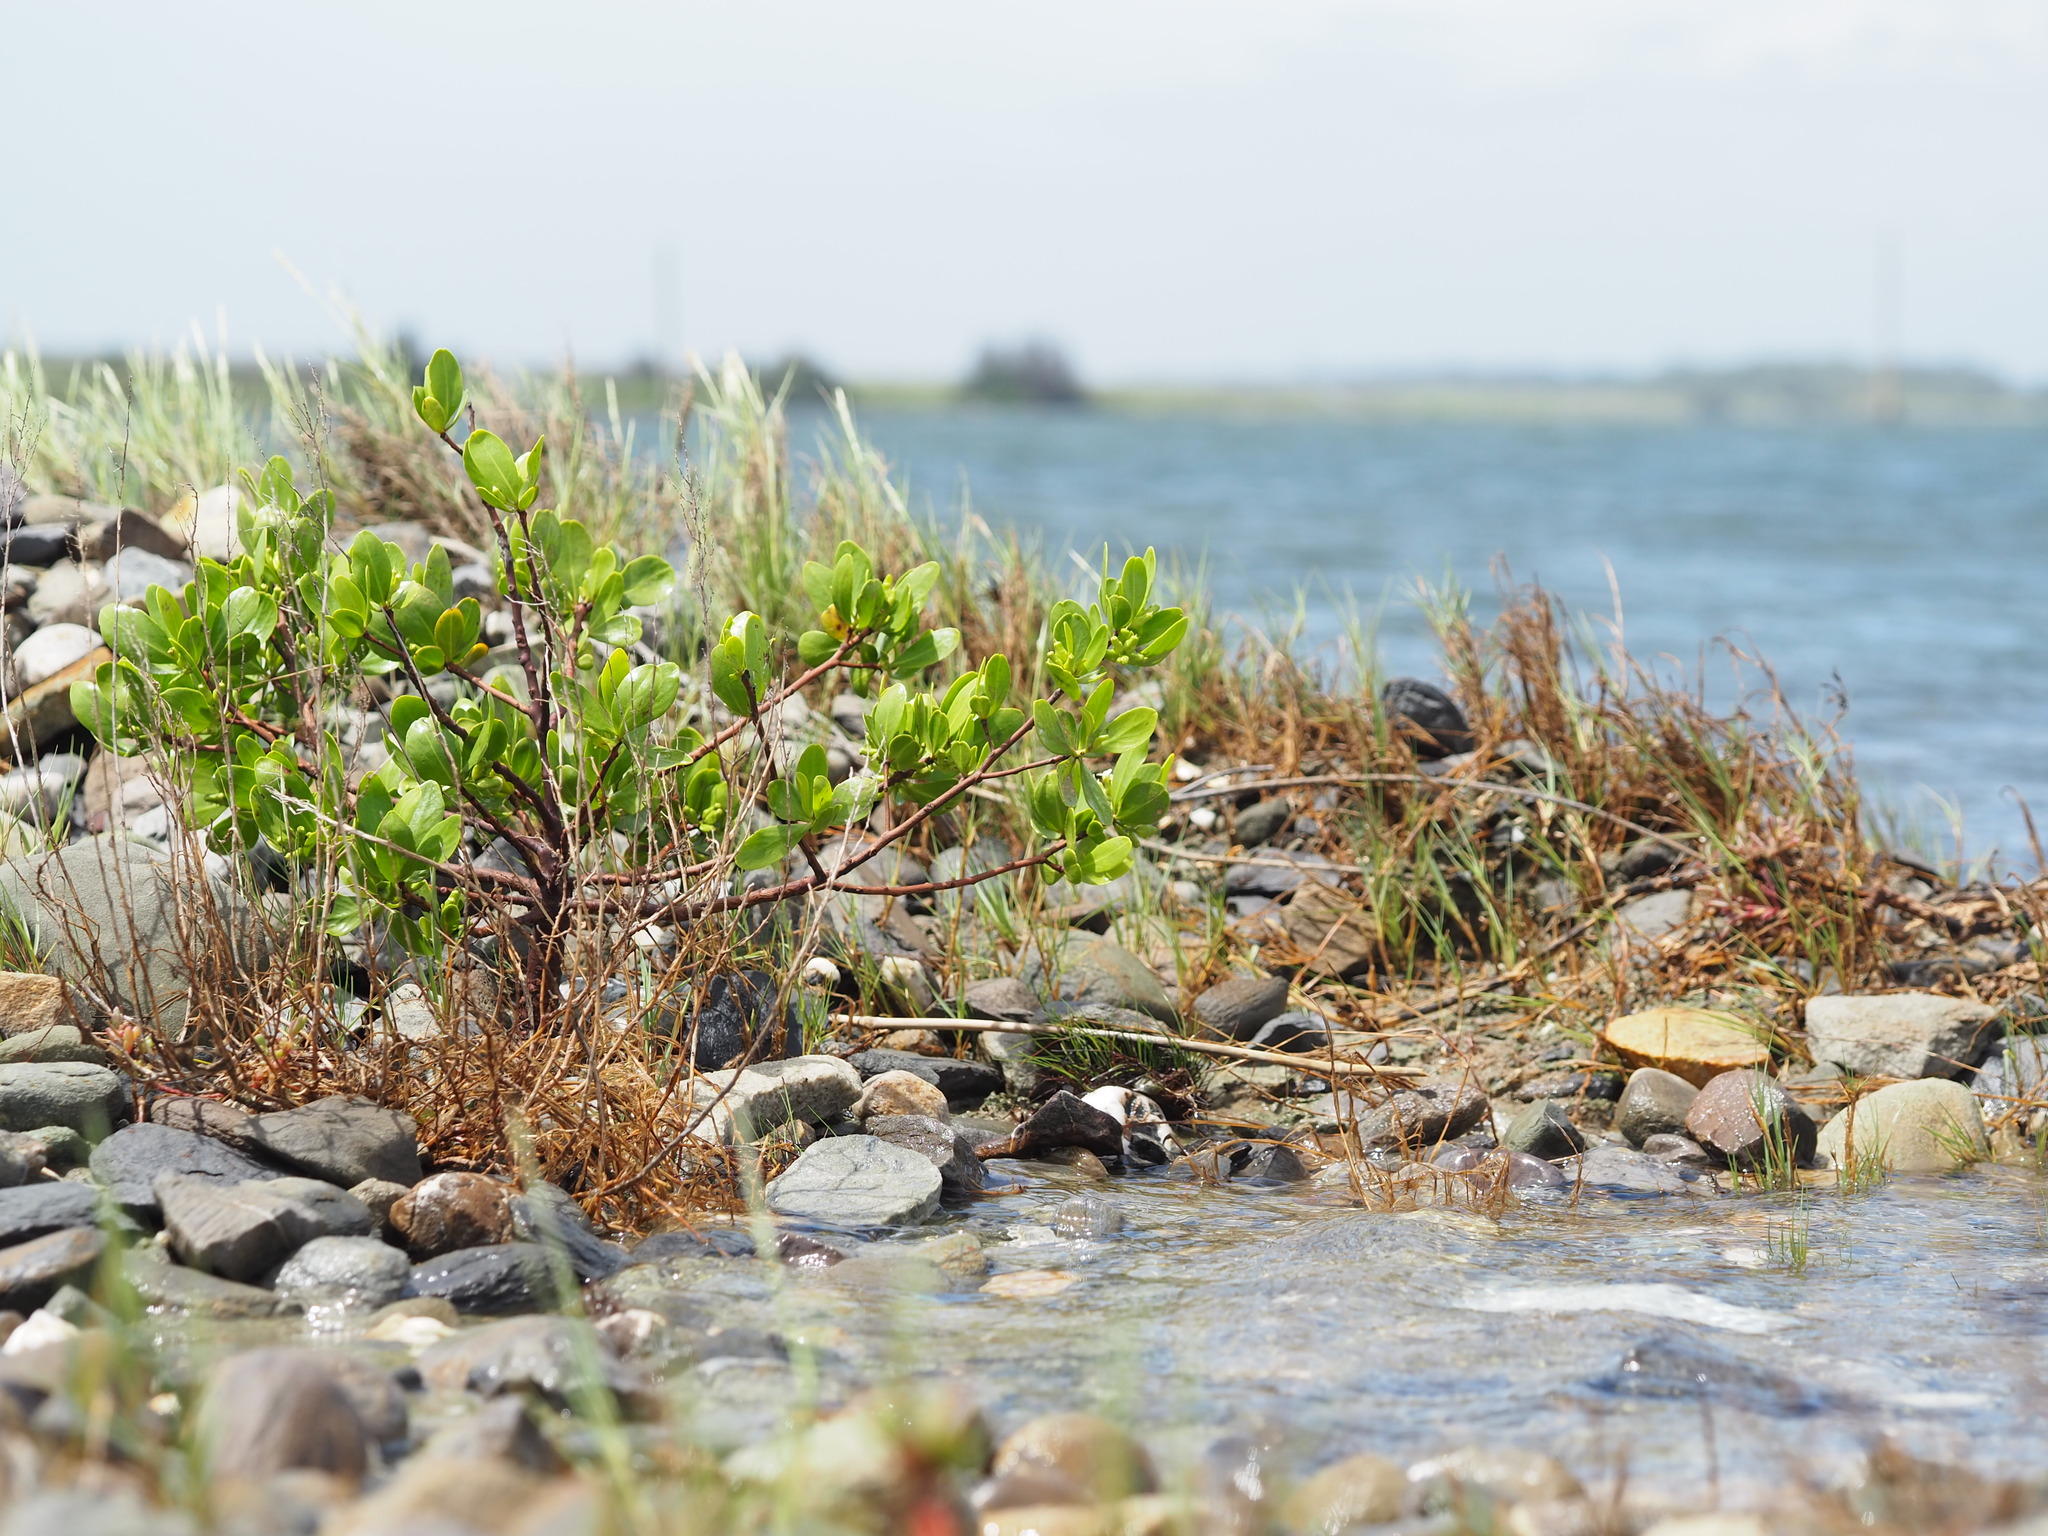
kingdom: Plantae
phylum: Tracheophyta
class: Magnoliopsida
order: Myrtales
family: Combretaceae
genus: Lumnitzera
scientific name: Lumnitzera racemosa
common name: White-flowered black mangrove
